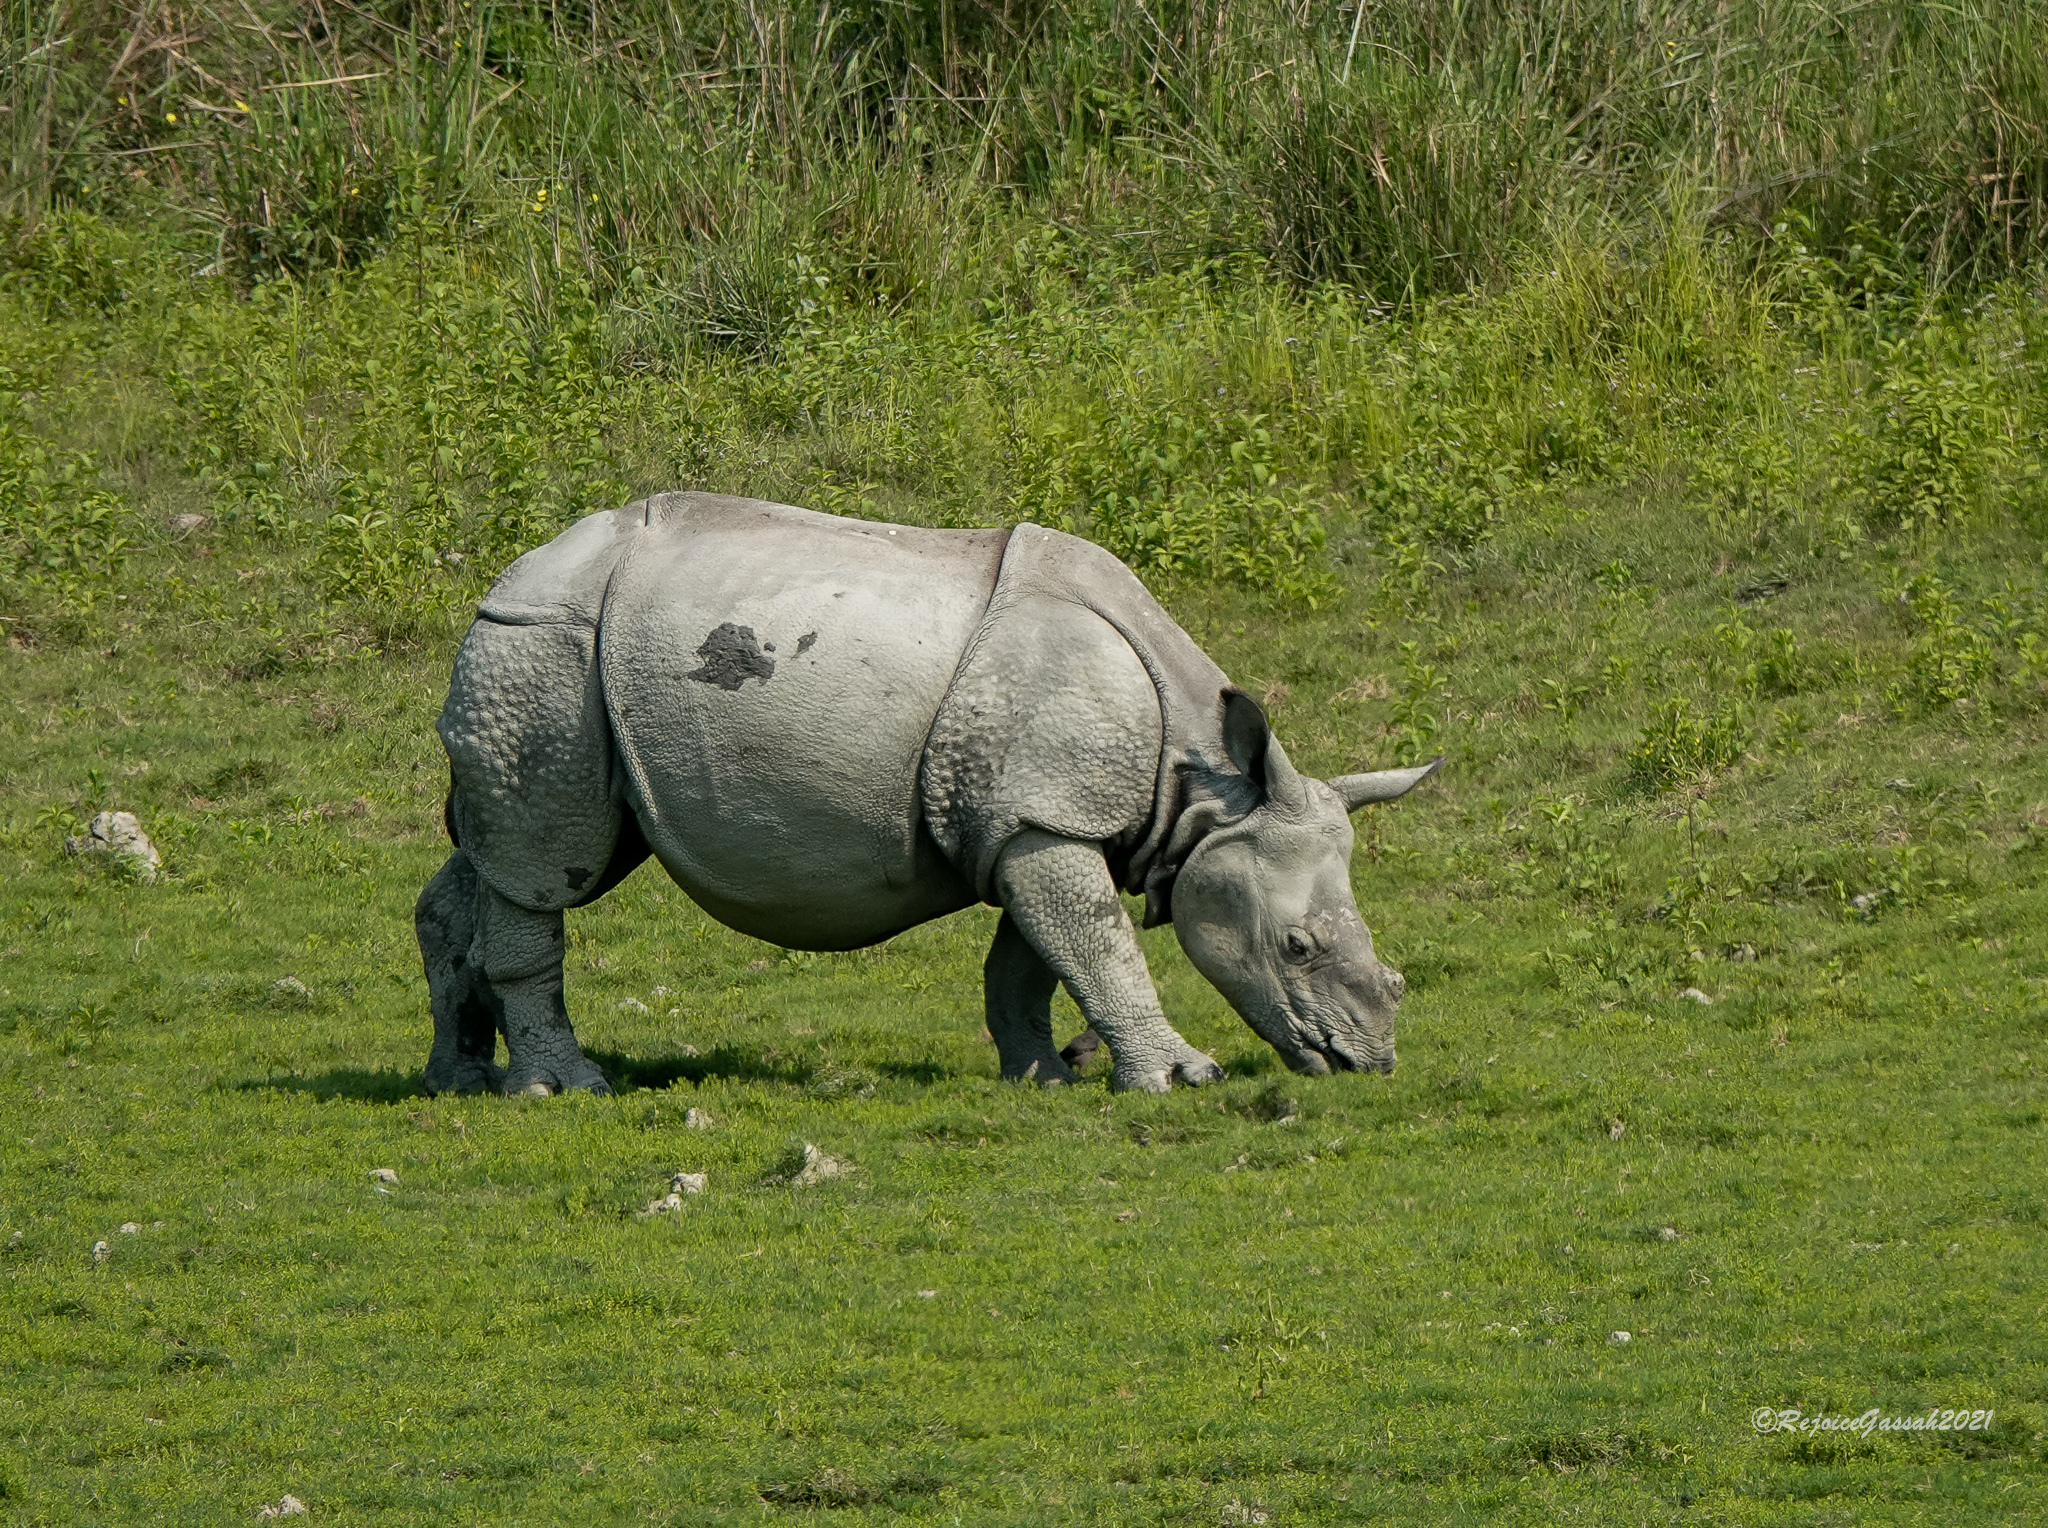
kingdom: Animalia
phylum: Chordata
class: Mammalia
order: Perissodactyla
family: Rhinocerotidae
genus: Rhinoceros
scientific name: Rhinoceros unicornis
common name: Indian rhinoceros
